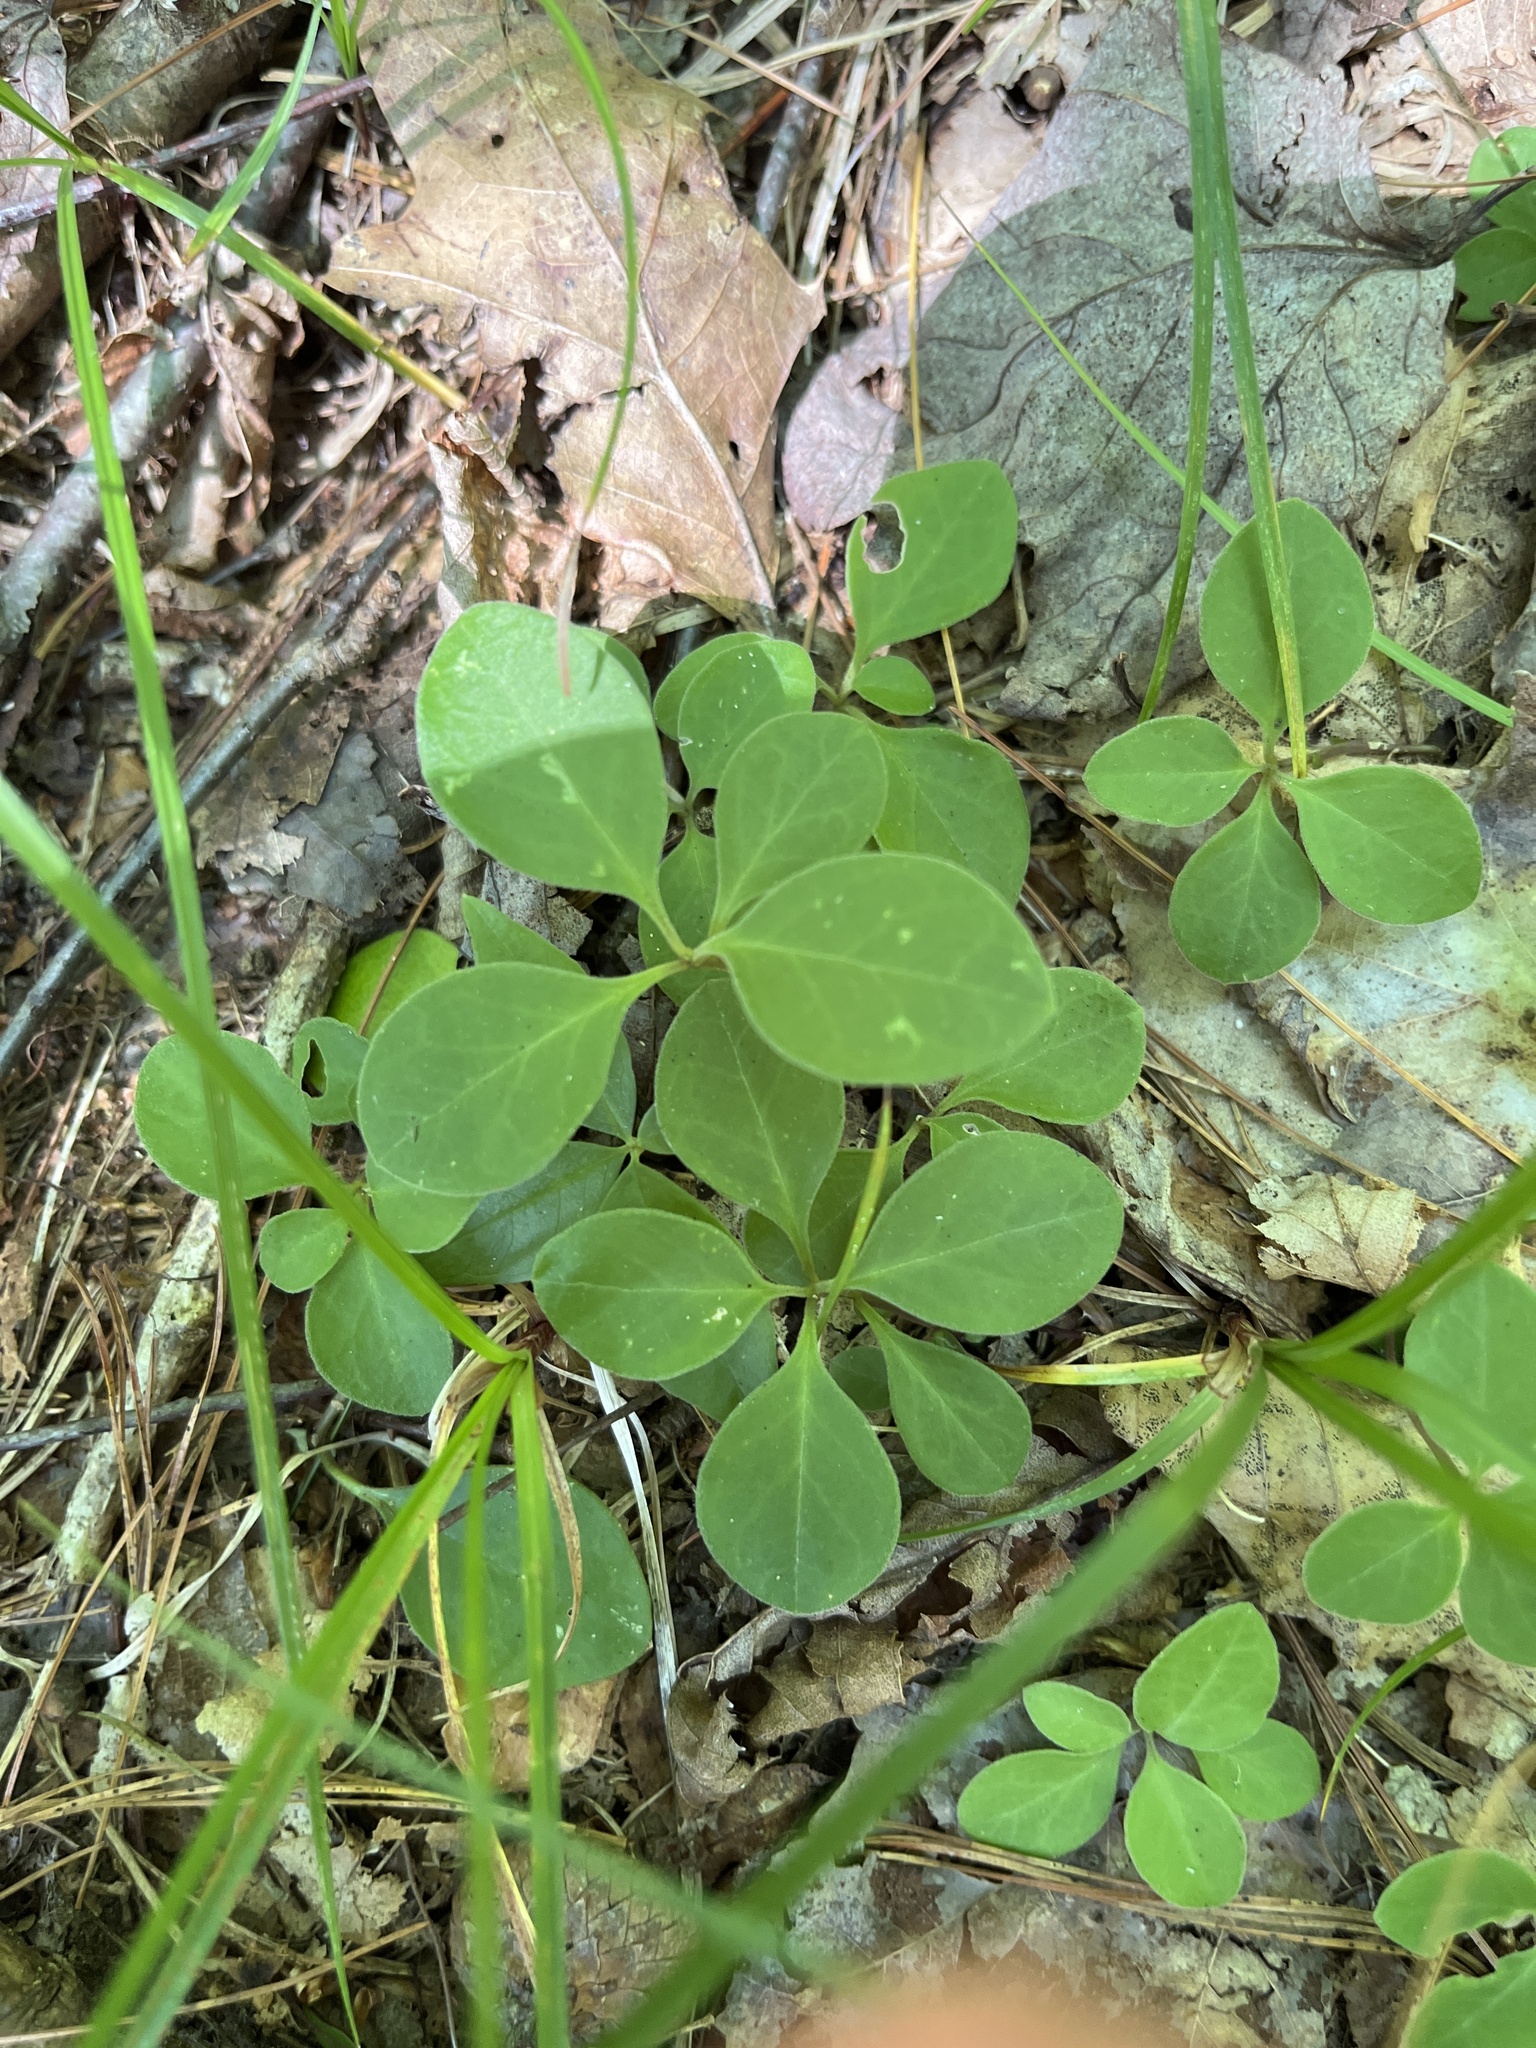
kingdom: Plantae
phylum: Tracheophyta
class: Magnoliopsida
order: Fabales
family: Polygalaceae
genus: Polygaloides
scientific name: Polygaloides paucifolia
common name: Bird-on-the-wing
